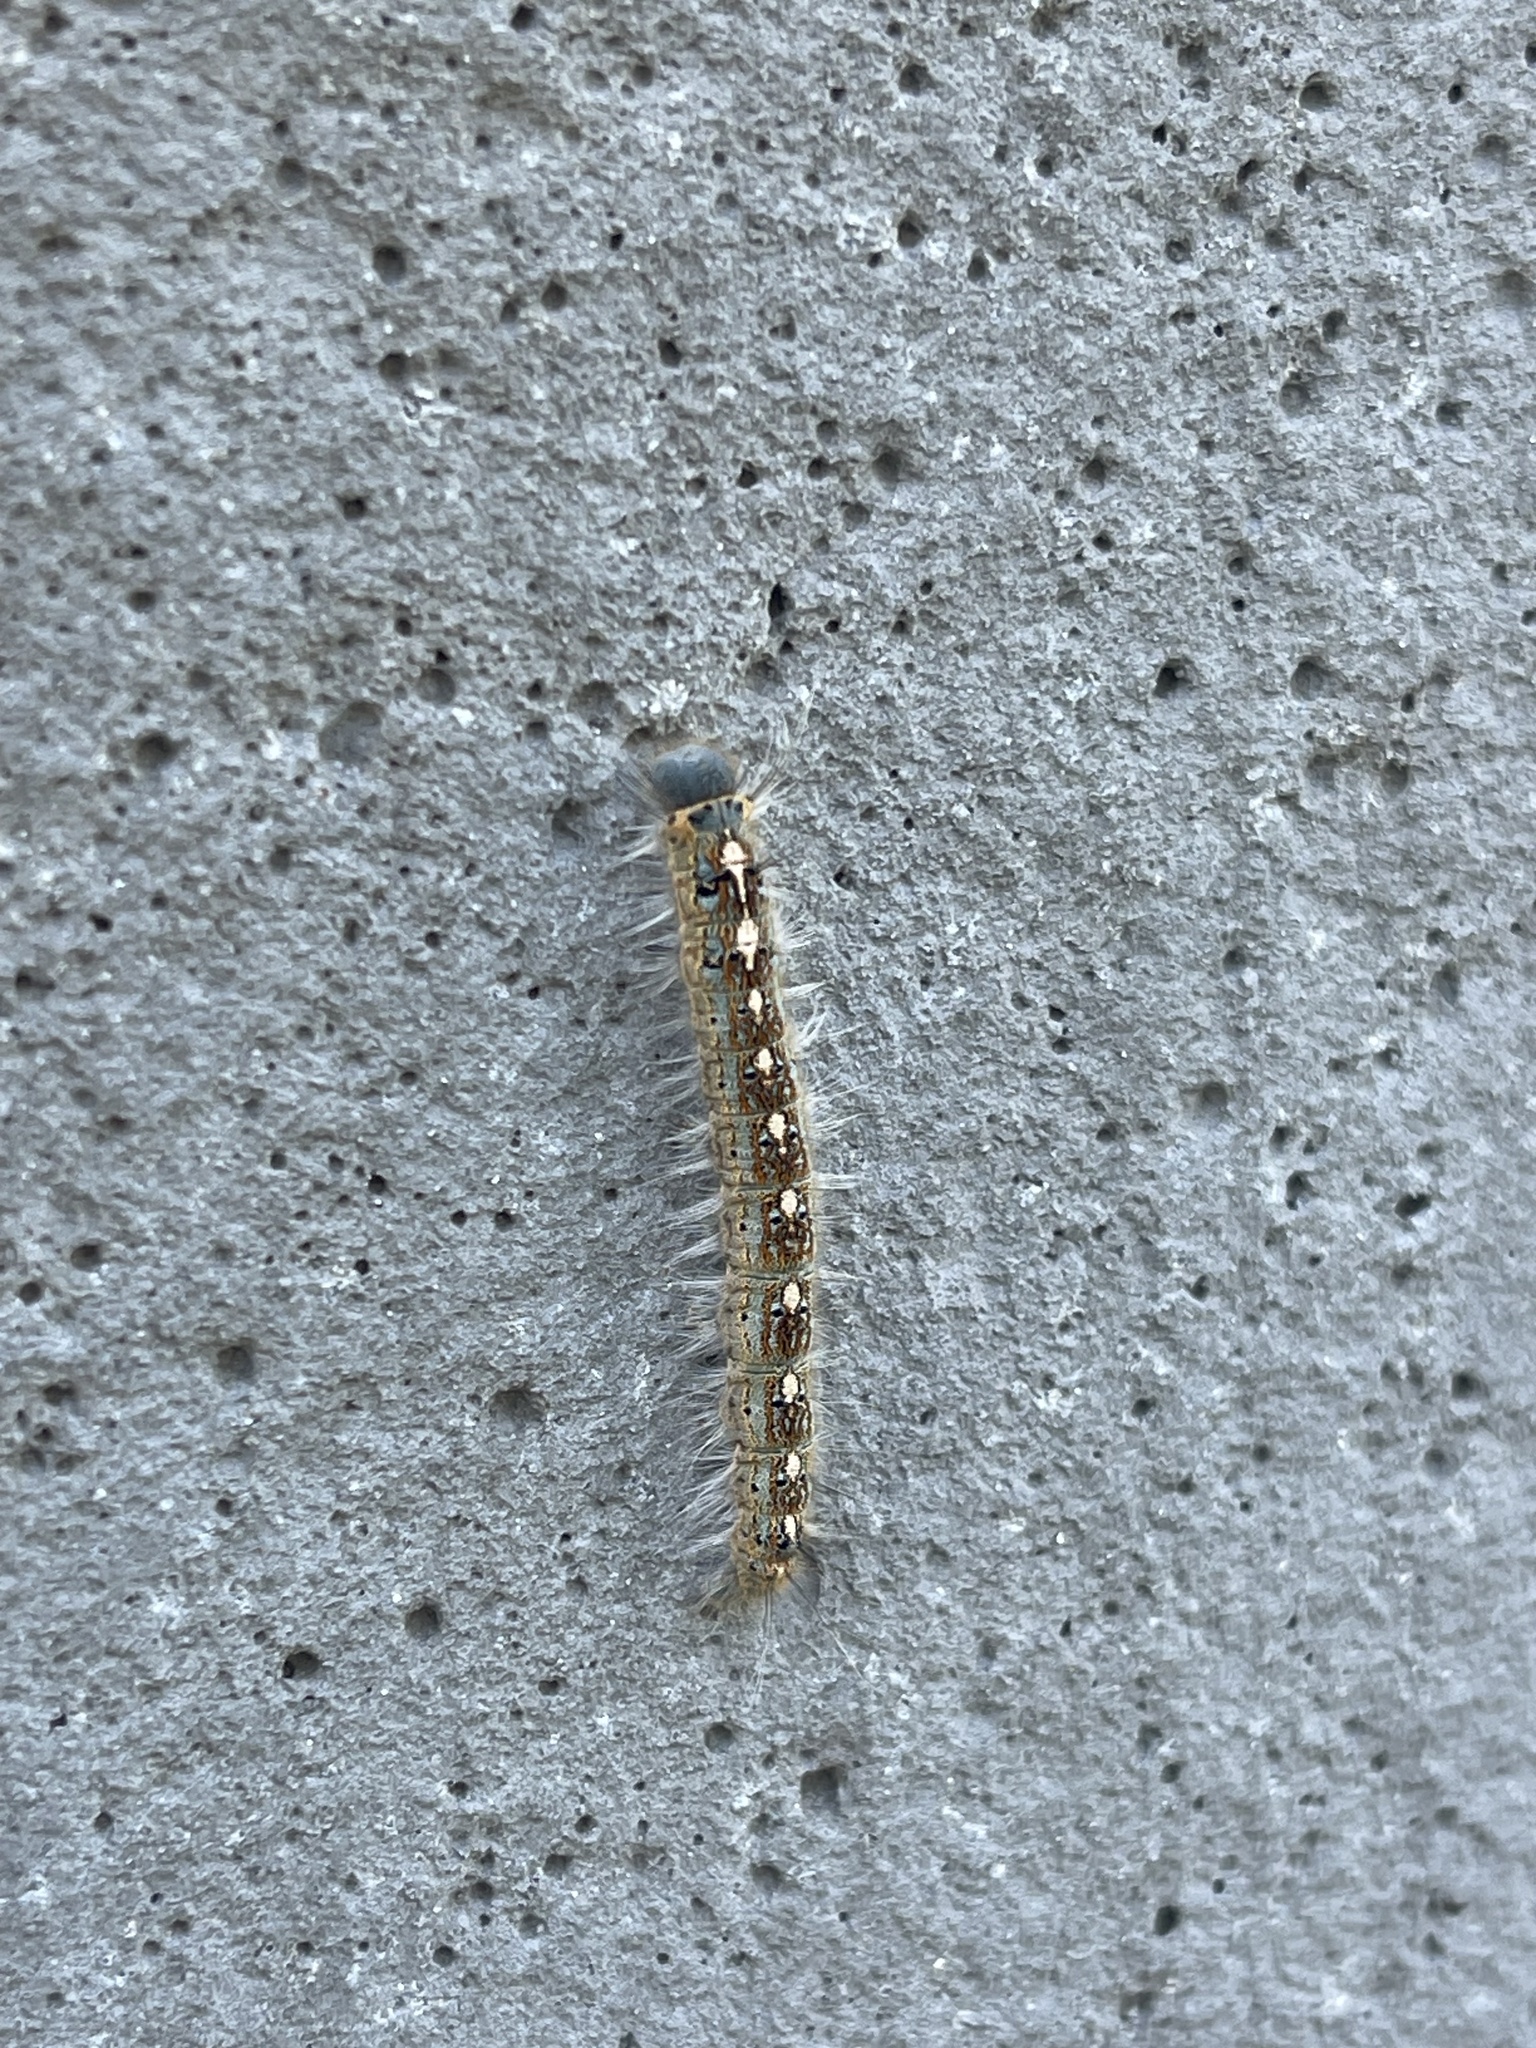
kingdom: Animalia
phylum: Arthropoda
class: Insecta
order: Lepidoptera
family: Lasiocampidae
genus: Malacosoma
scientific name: Malacosoma disstria
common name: Forest tent caterpillar
